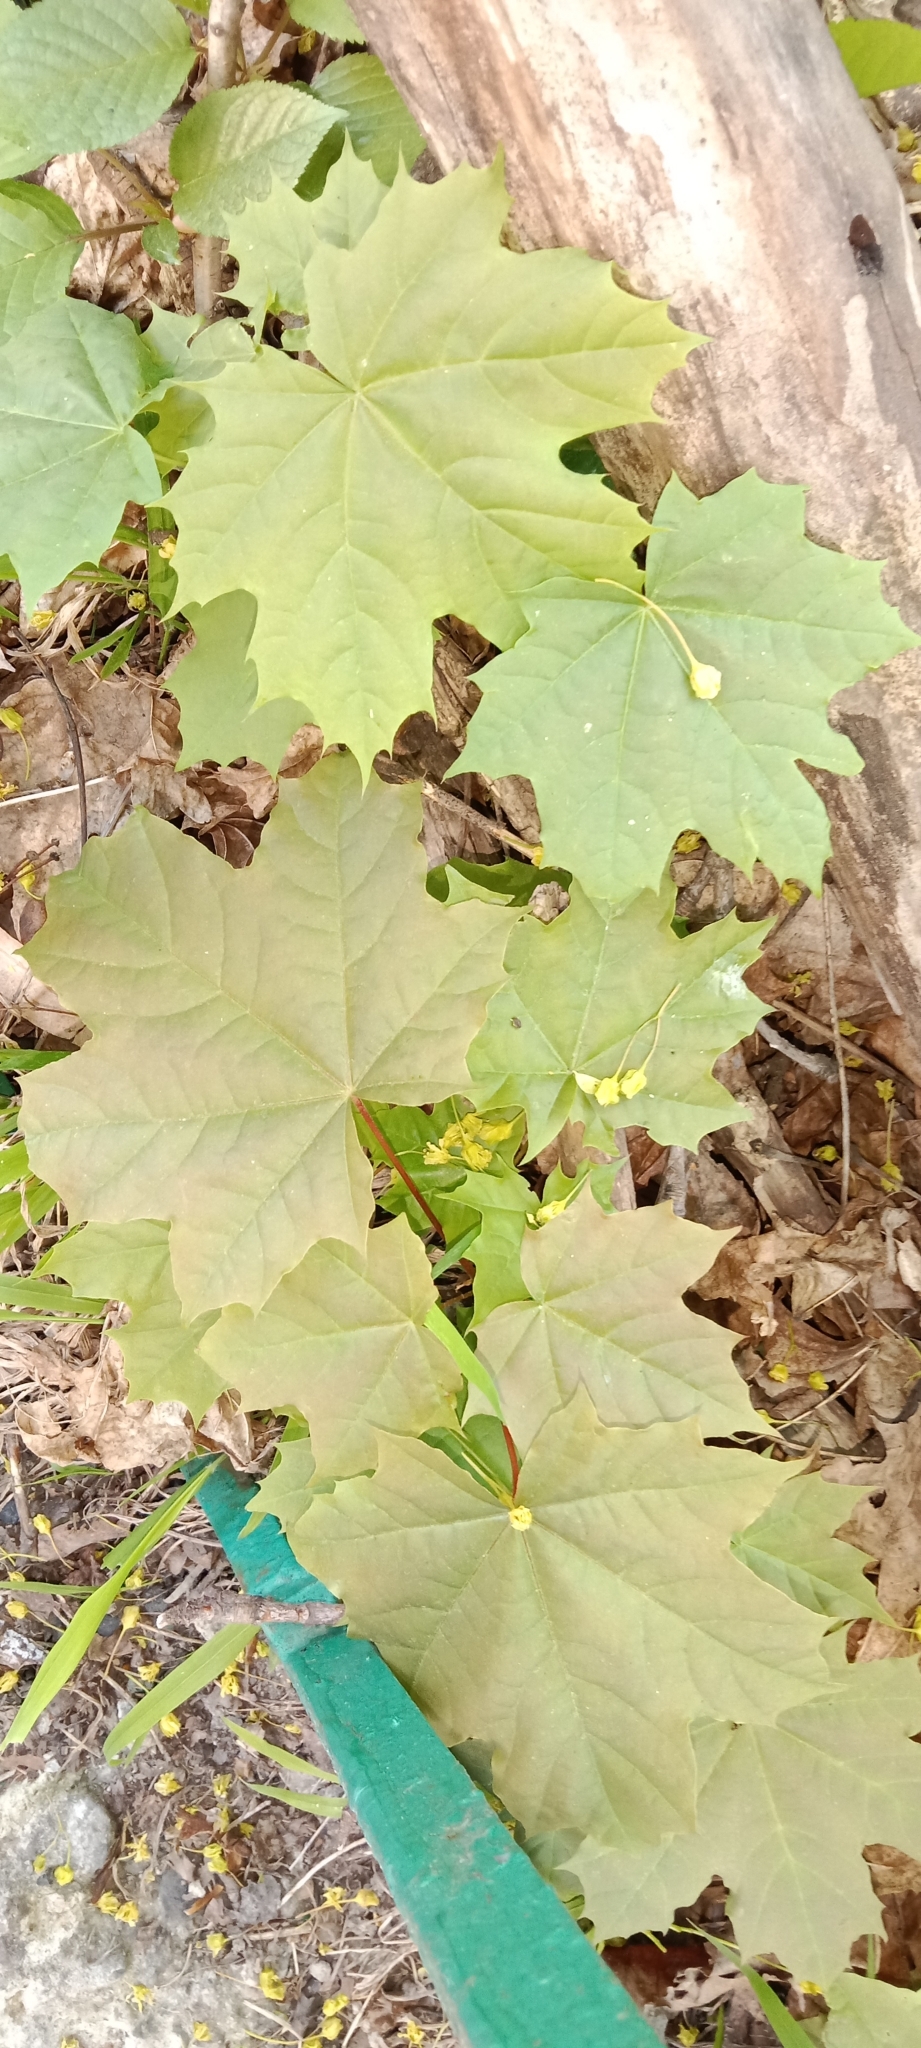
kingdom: Plantae
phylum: Tracheophyta
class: Magnoliopsida
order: Sapindales
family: Sapindaceae
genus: Acer
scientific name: Acer platanoides
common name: Norway maple
